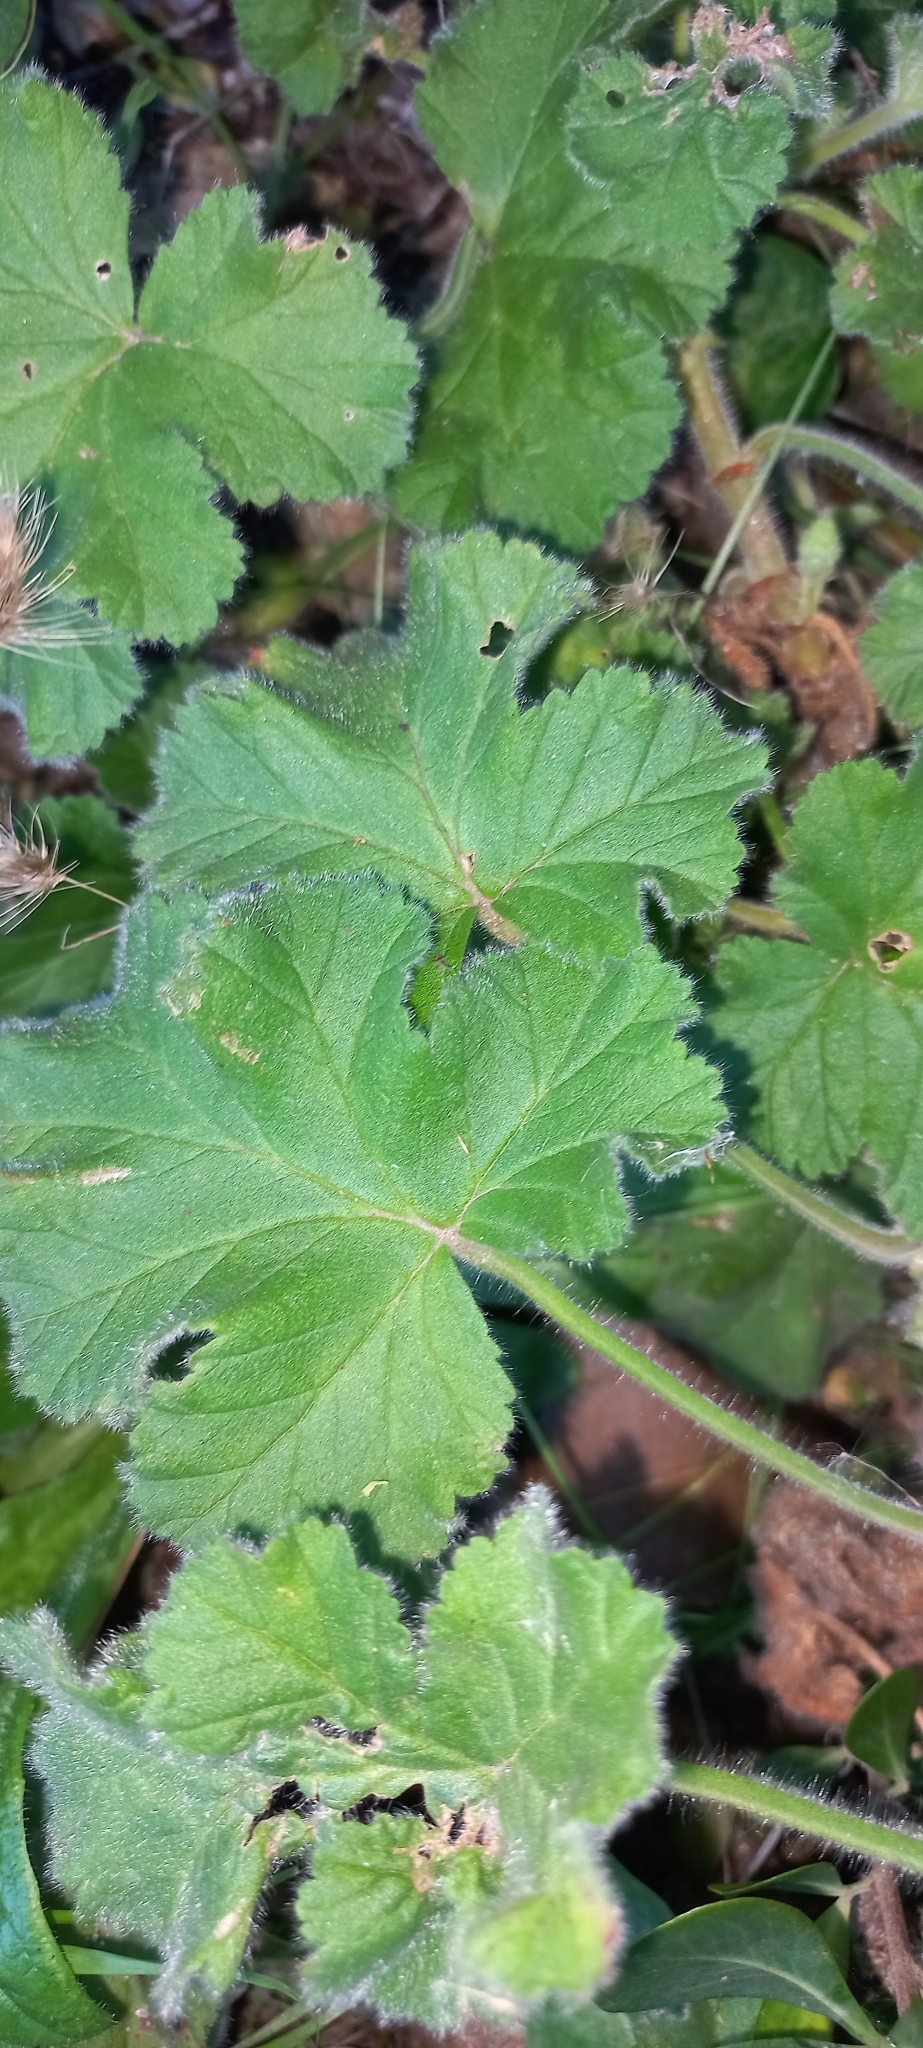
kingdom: Plantae
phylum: Tracheophyta
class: Magnoliopsida
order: Geraniales
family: Geraniaceae
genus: Pelargonium
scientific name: Pelargonium capitatum
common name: Rose scented geranium
